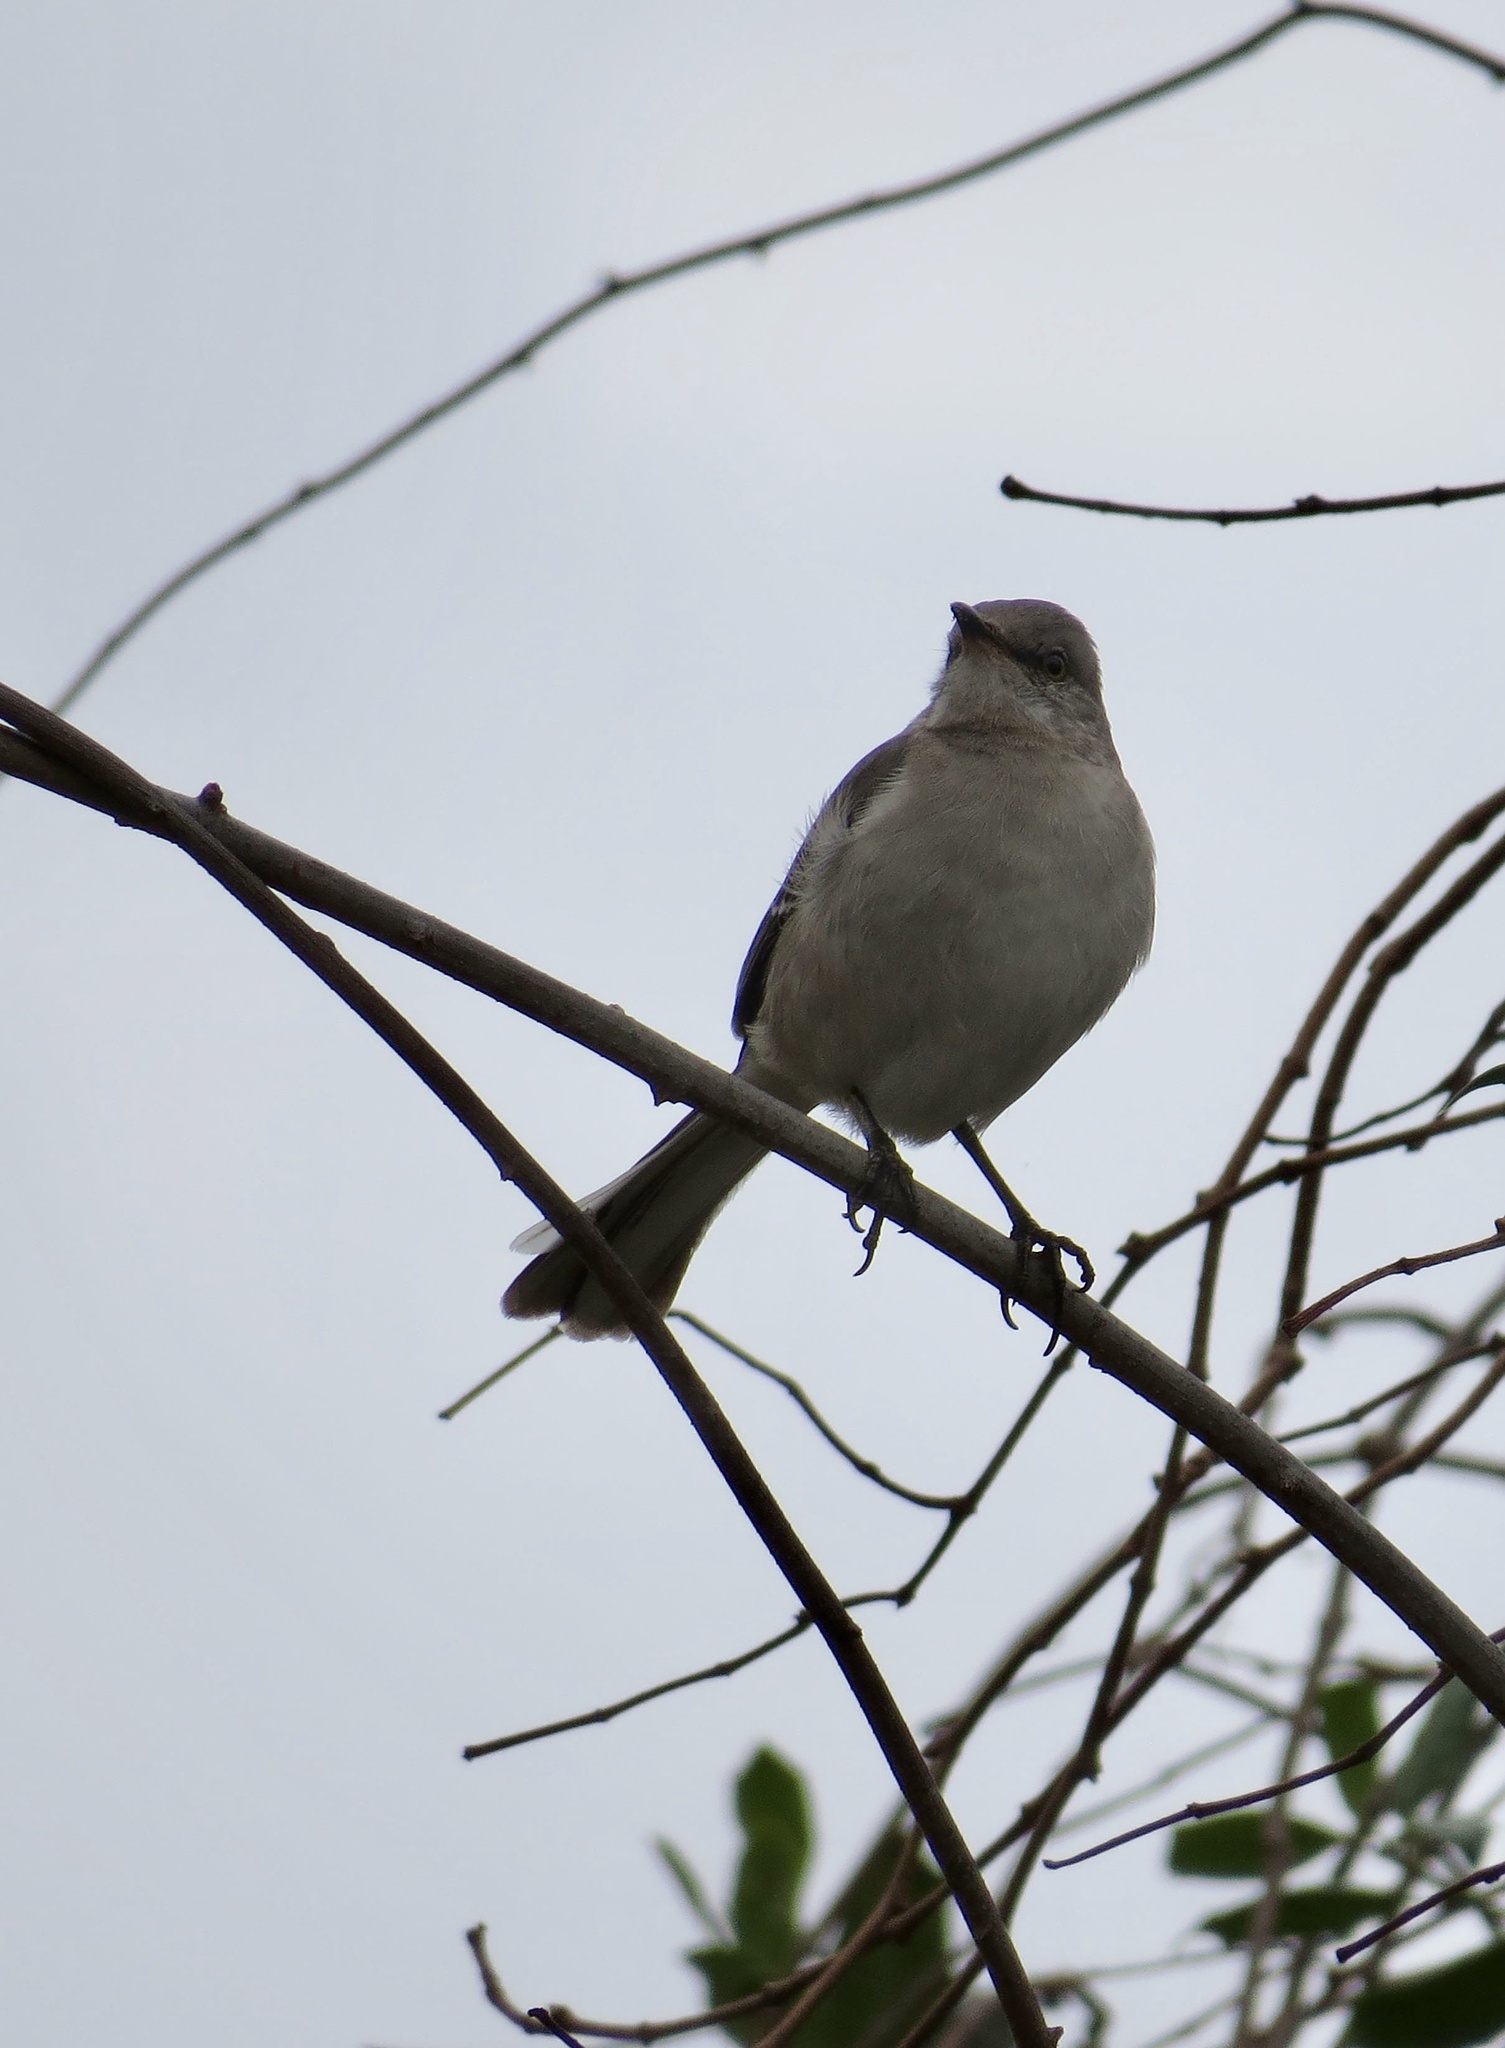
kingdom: Animalia
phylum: Chordata
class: Aves
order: Passeriformes
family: Mimidae
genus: Mimus
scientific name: Mimus polyglottos
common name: Northern mockingbird
